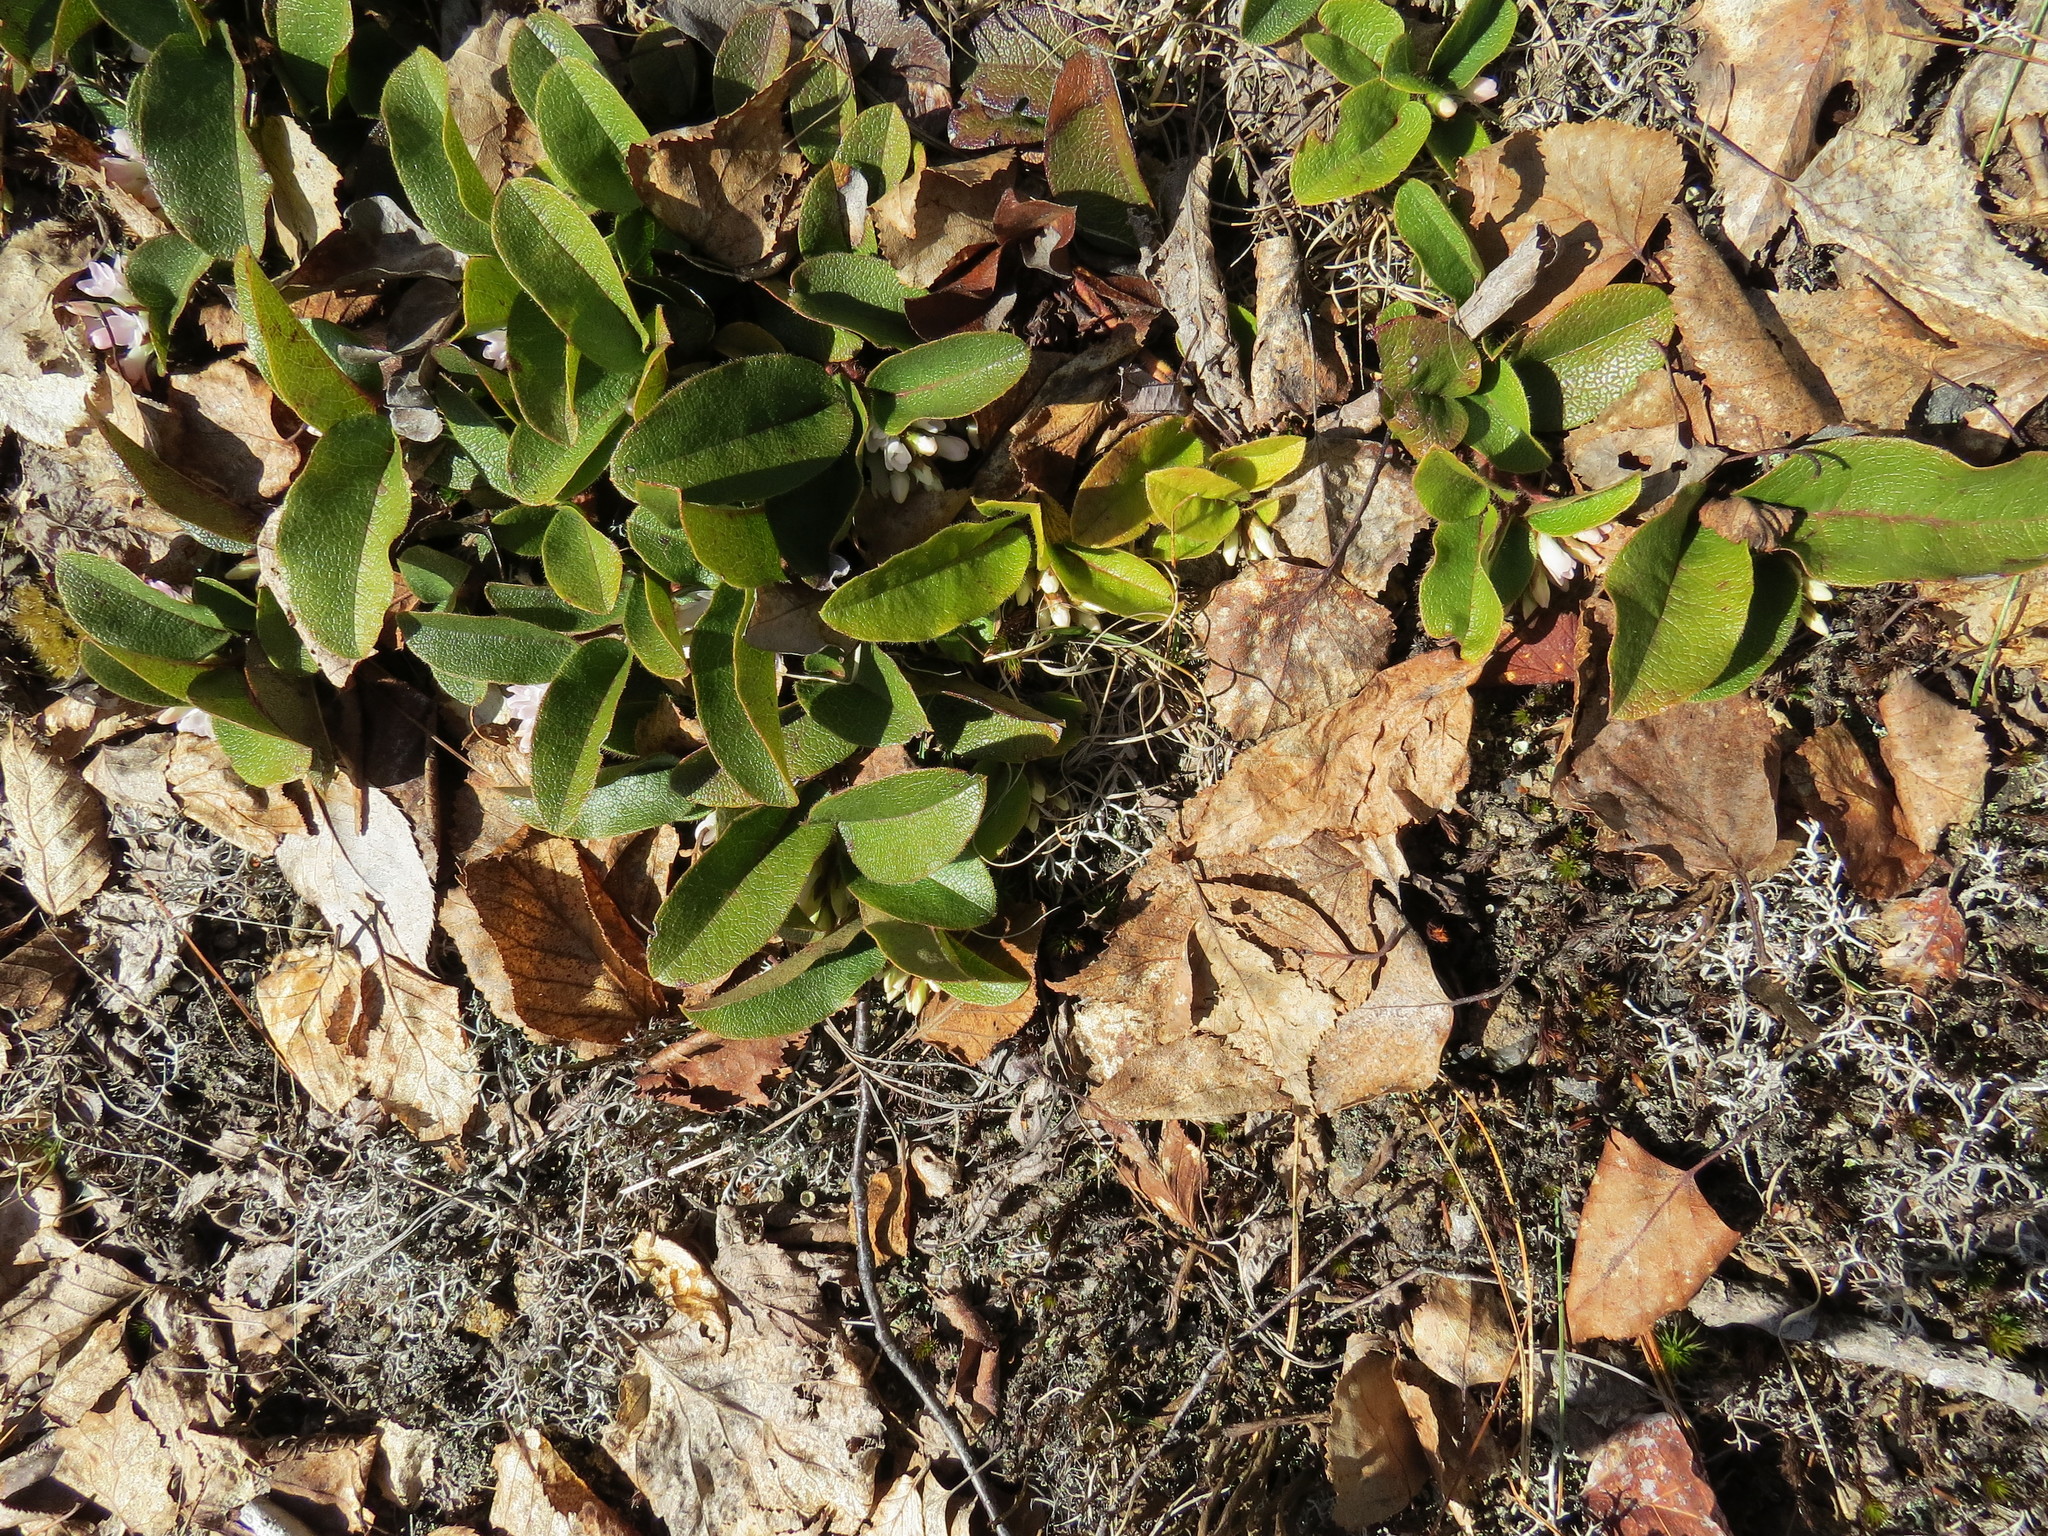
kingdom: Plantae
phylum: Tracheophyta
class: Magnoliopsida
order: Ericales
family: Ericaceae
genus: Epigaea
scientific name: Epigaea repens
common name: Gravelroot
